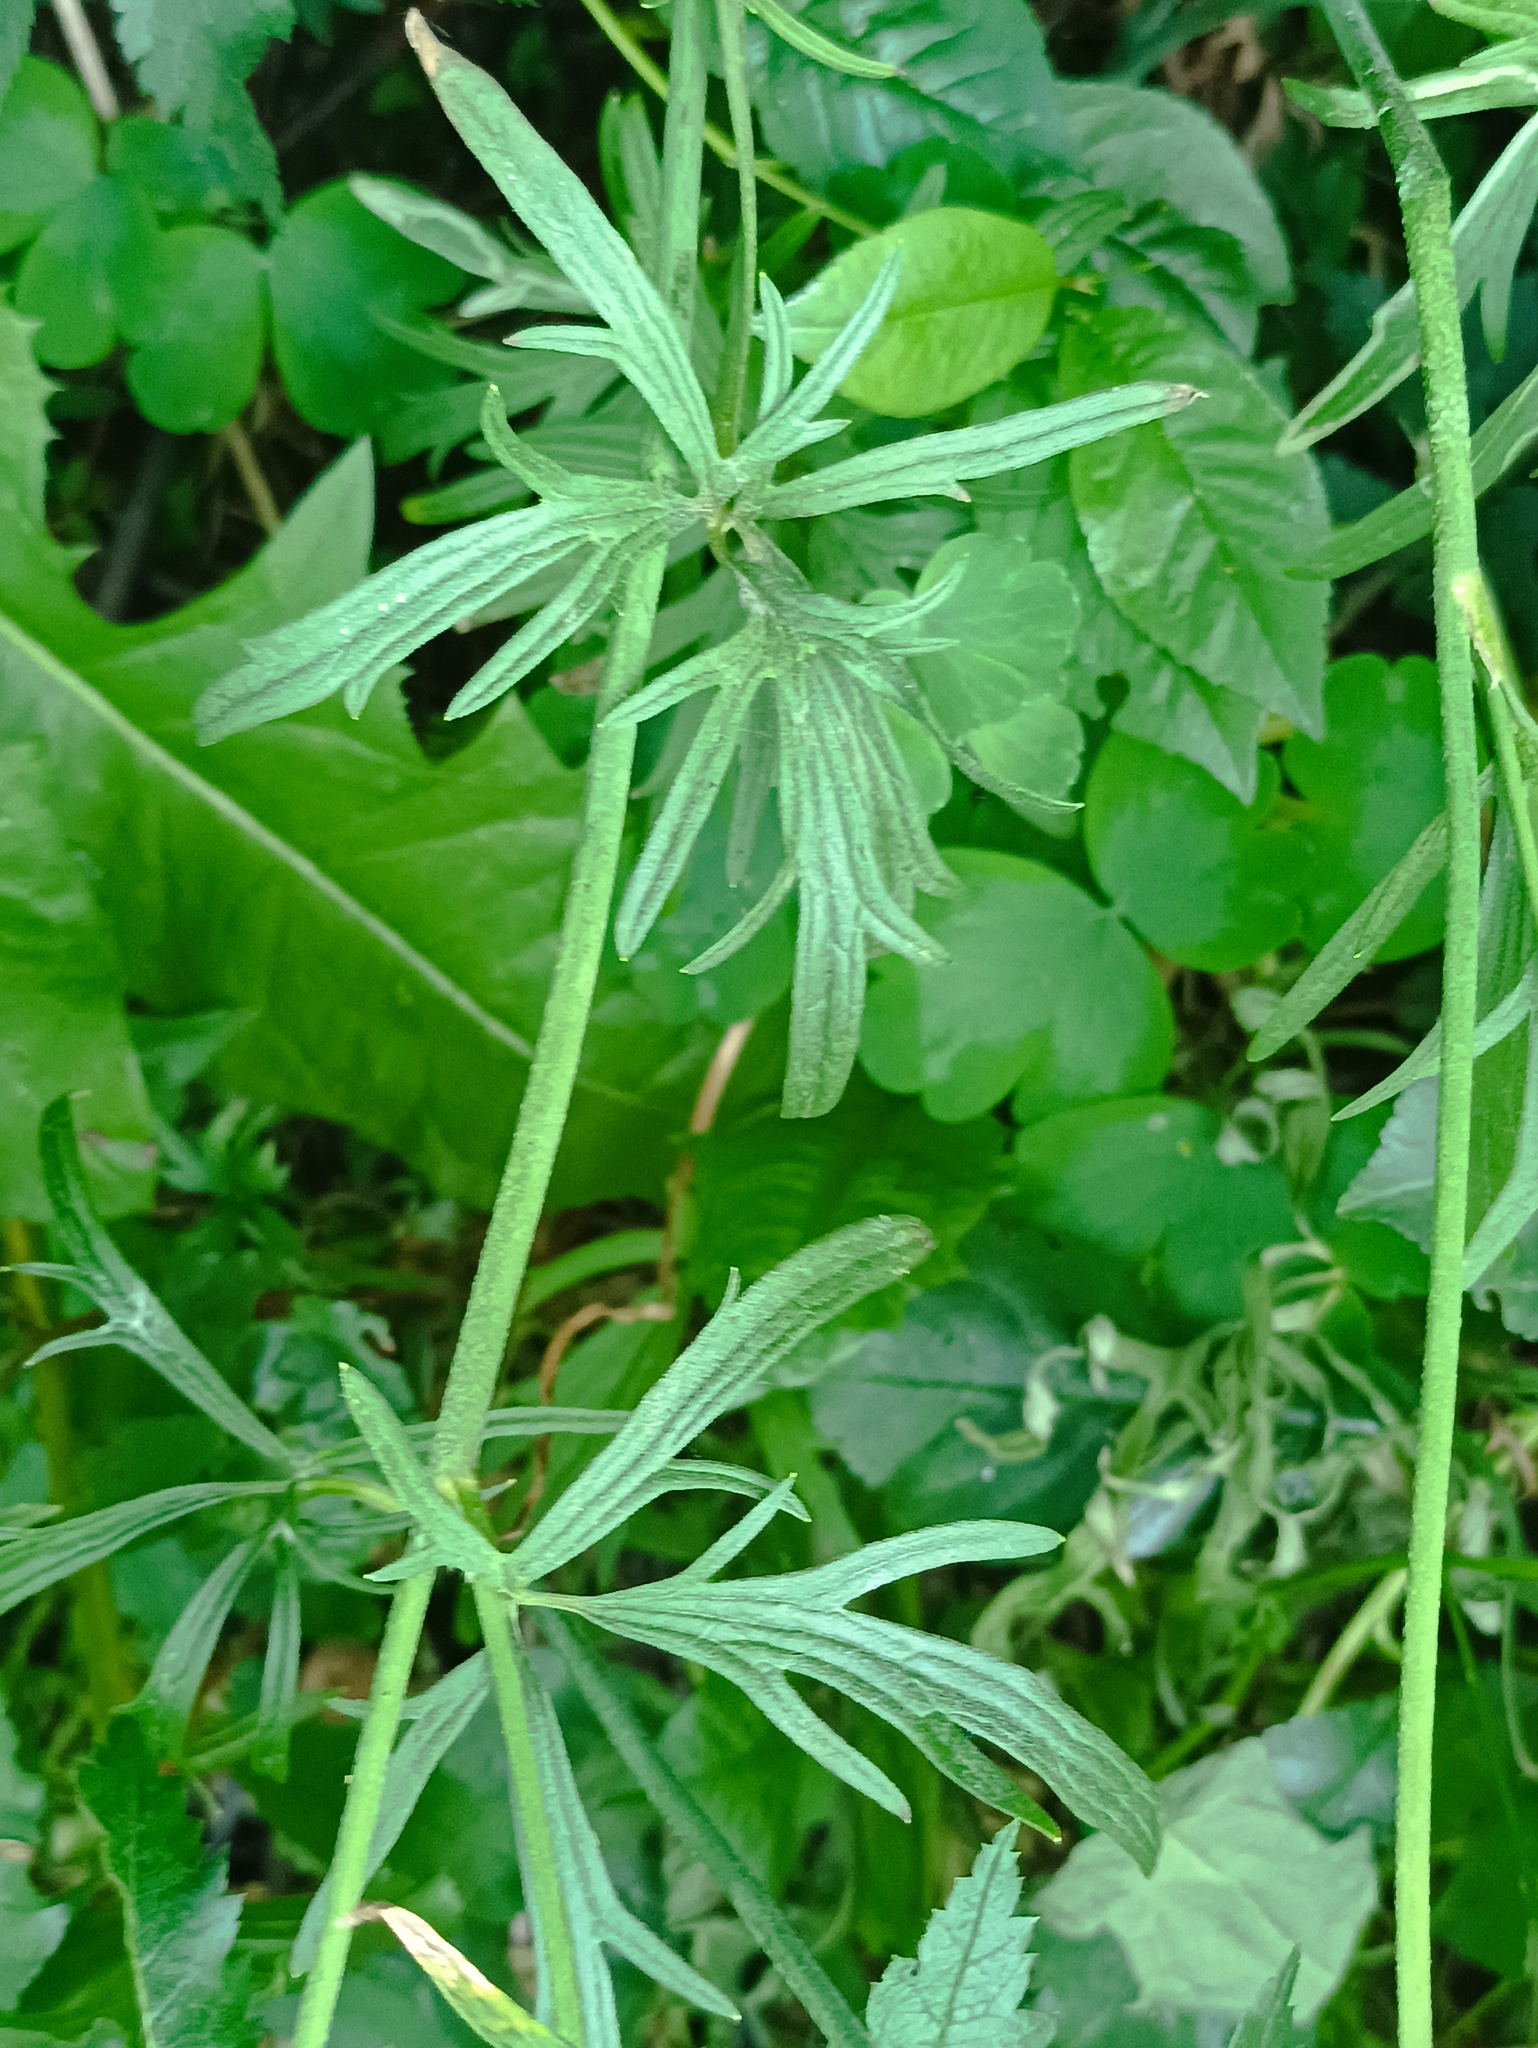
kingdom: Plantae
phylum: Tracheophyta
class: Magnoliopsida
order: Ranunculales
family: Ranunculaceae
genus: Ranunculus
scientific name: Ranunculus acris
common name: Meadow buttercup
